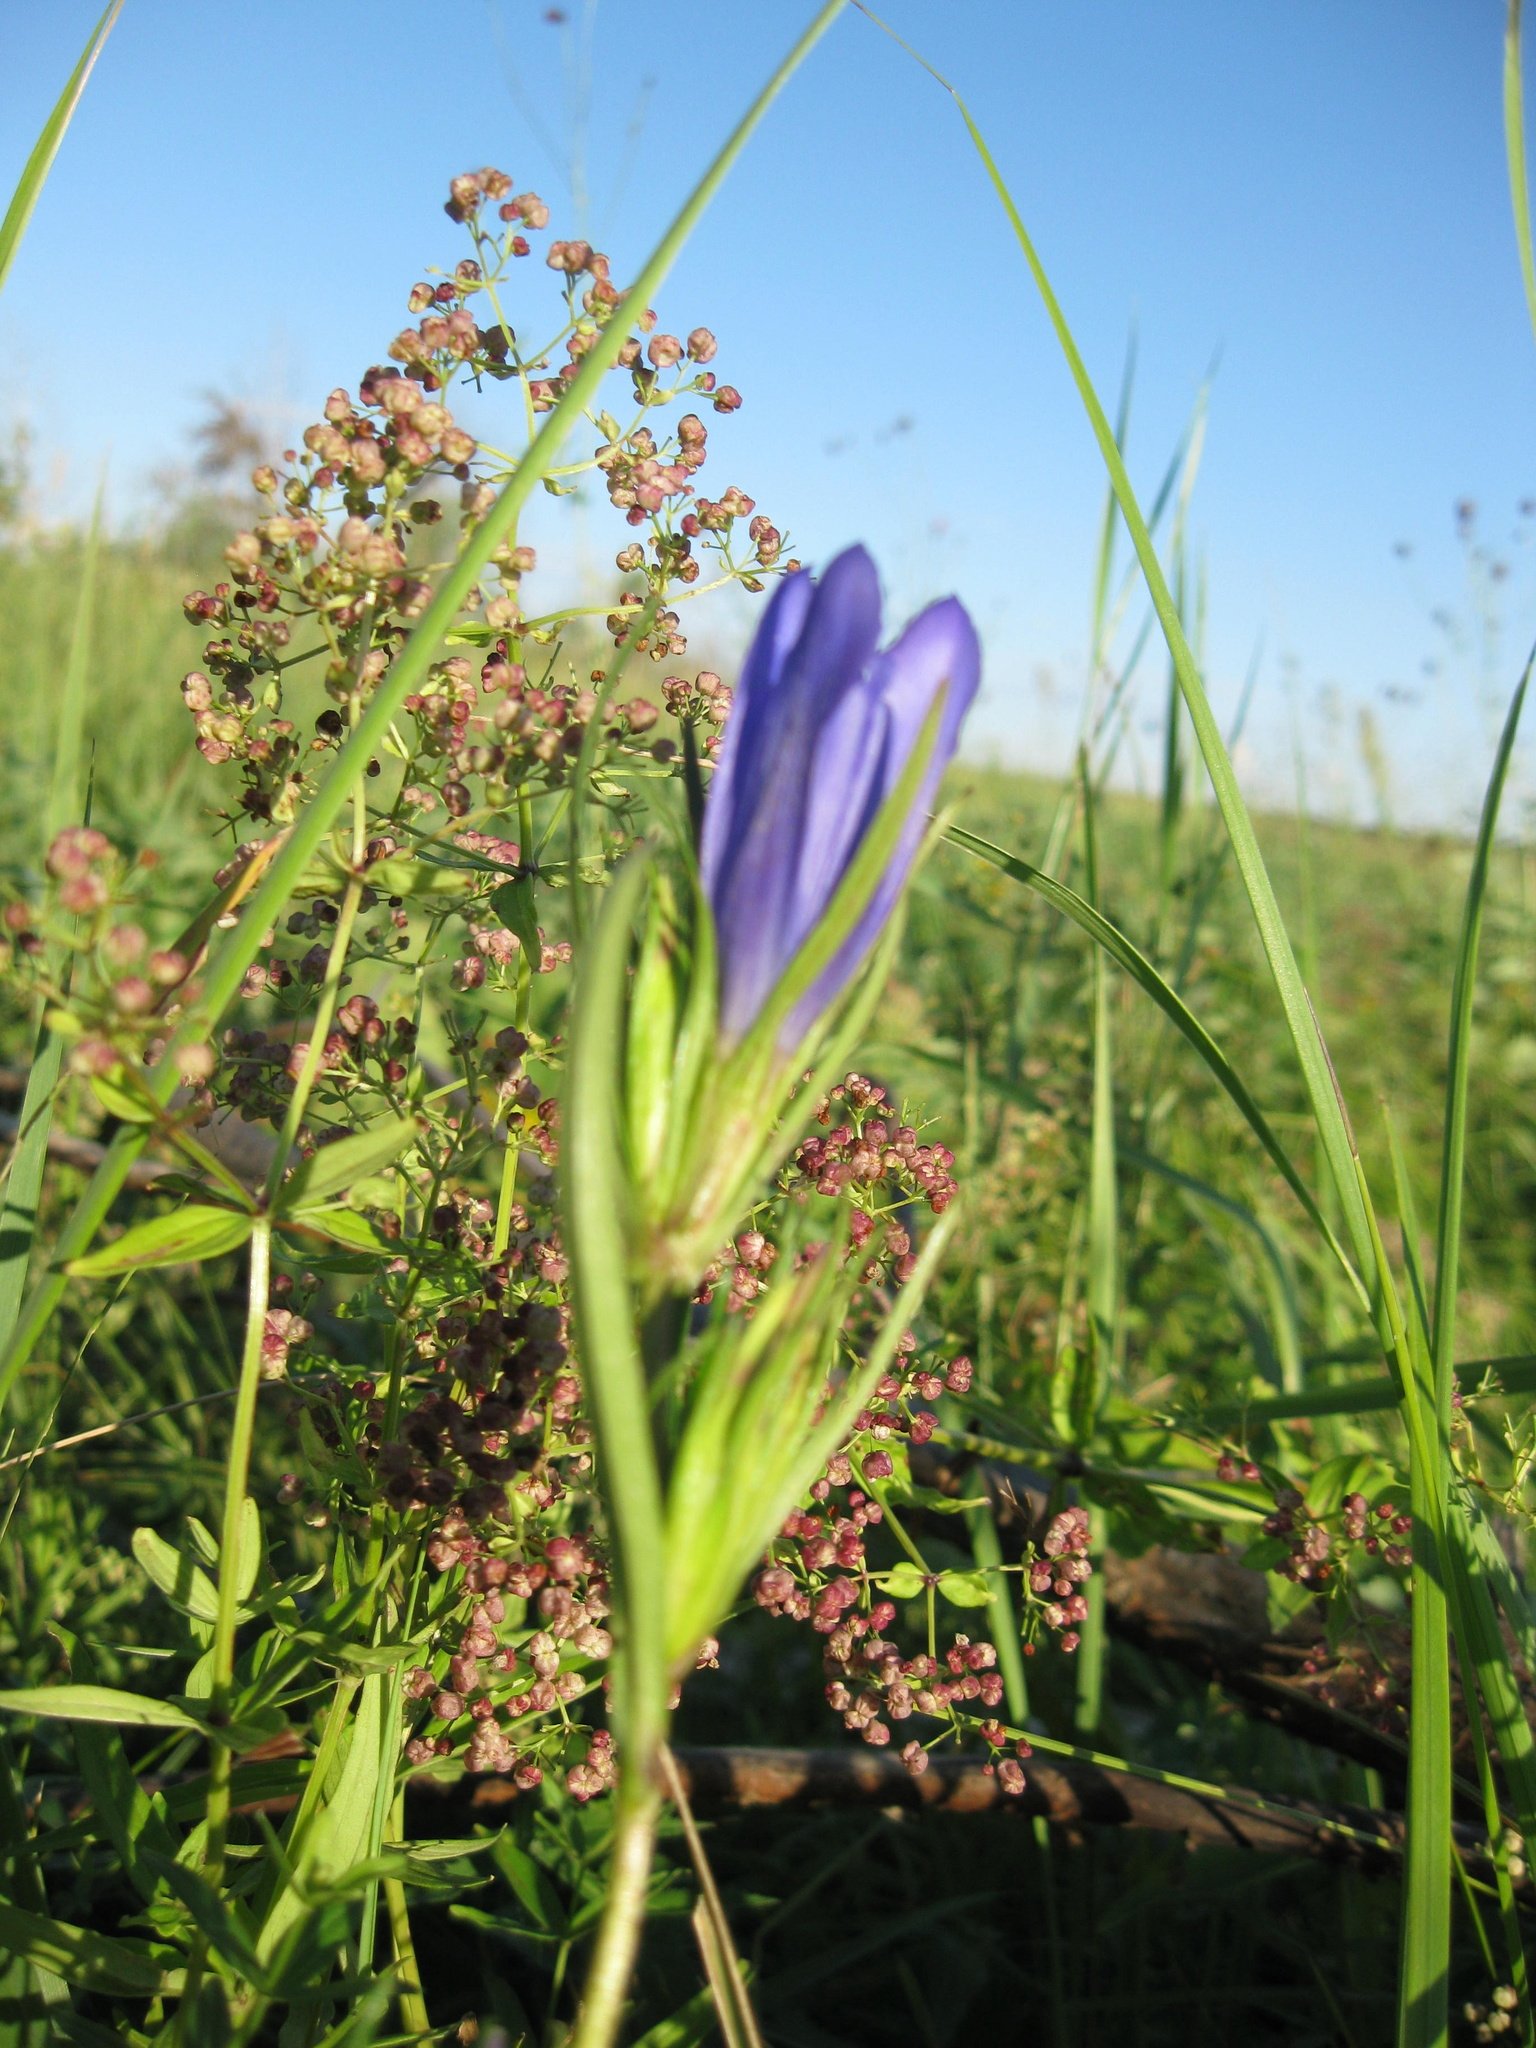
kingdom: Plantae
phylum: Tracheophyta
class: Magnoliopsida
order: Gentianales
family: Gentianaceae
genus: Gentiana
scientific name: Gentiana pneumonanthe
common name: Marsh gentian
